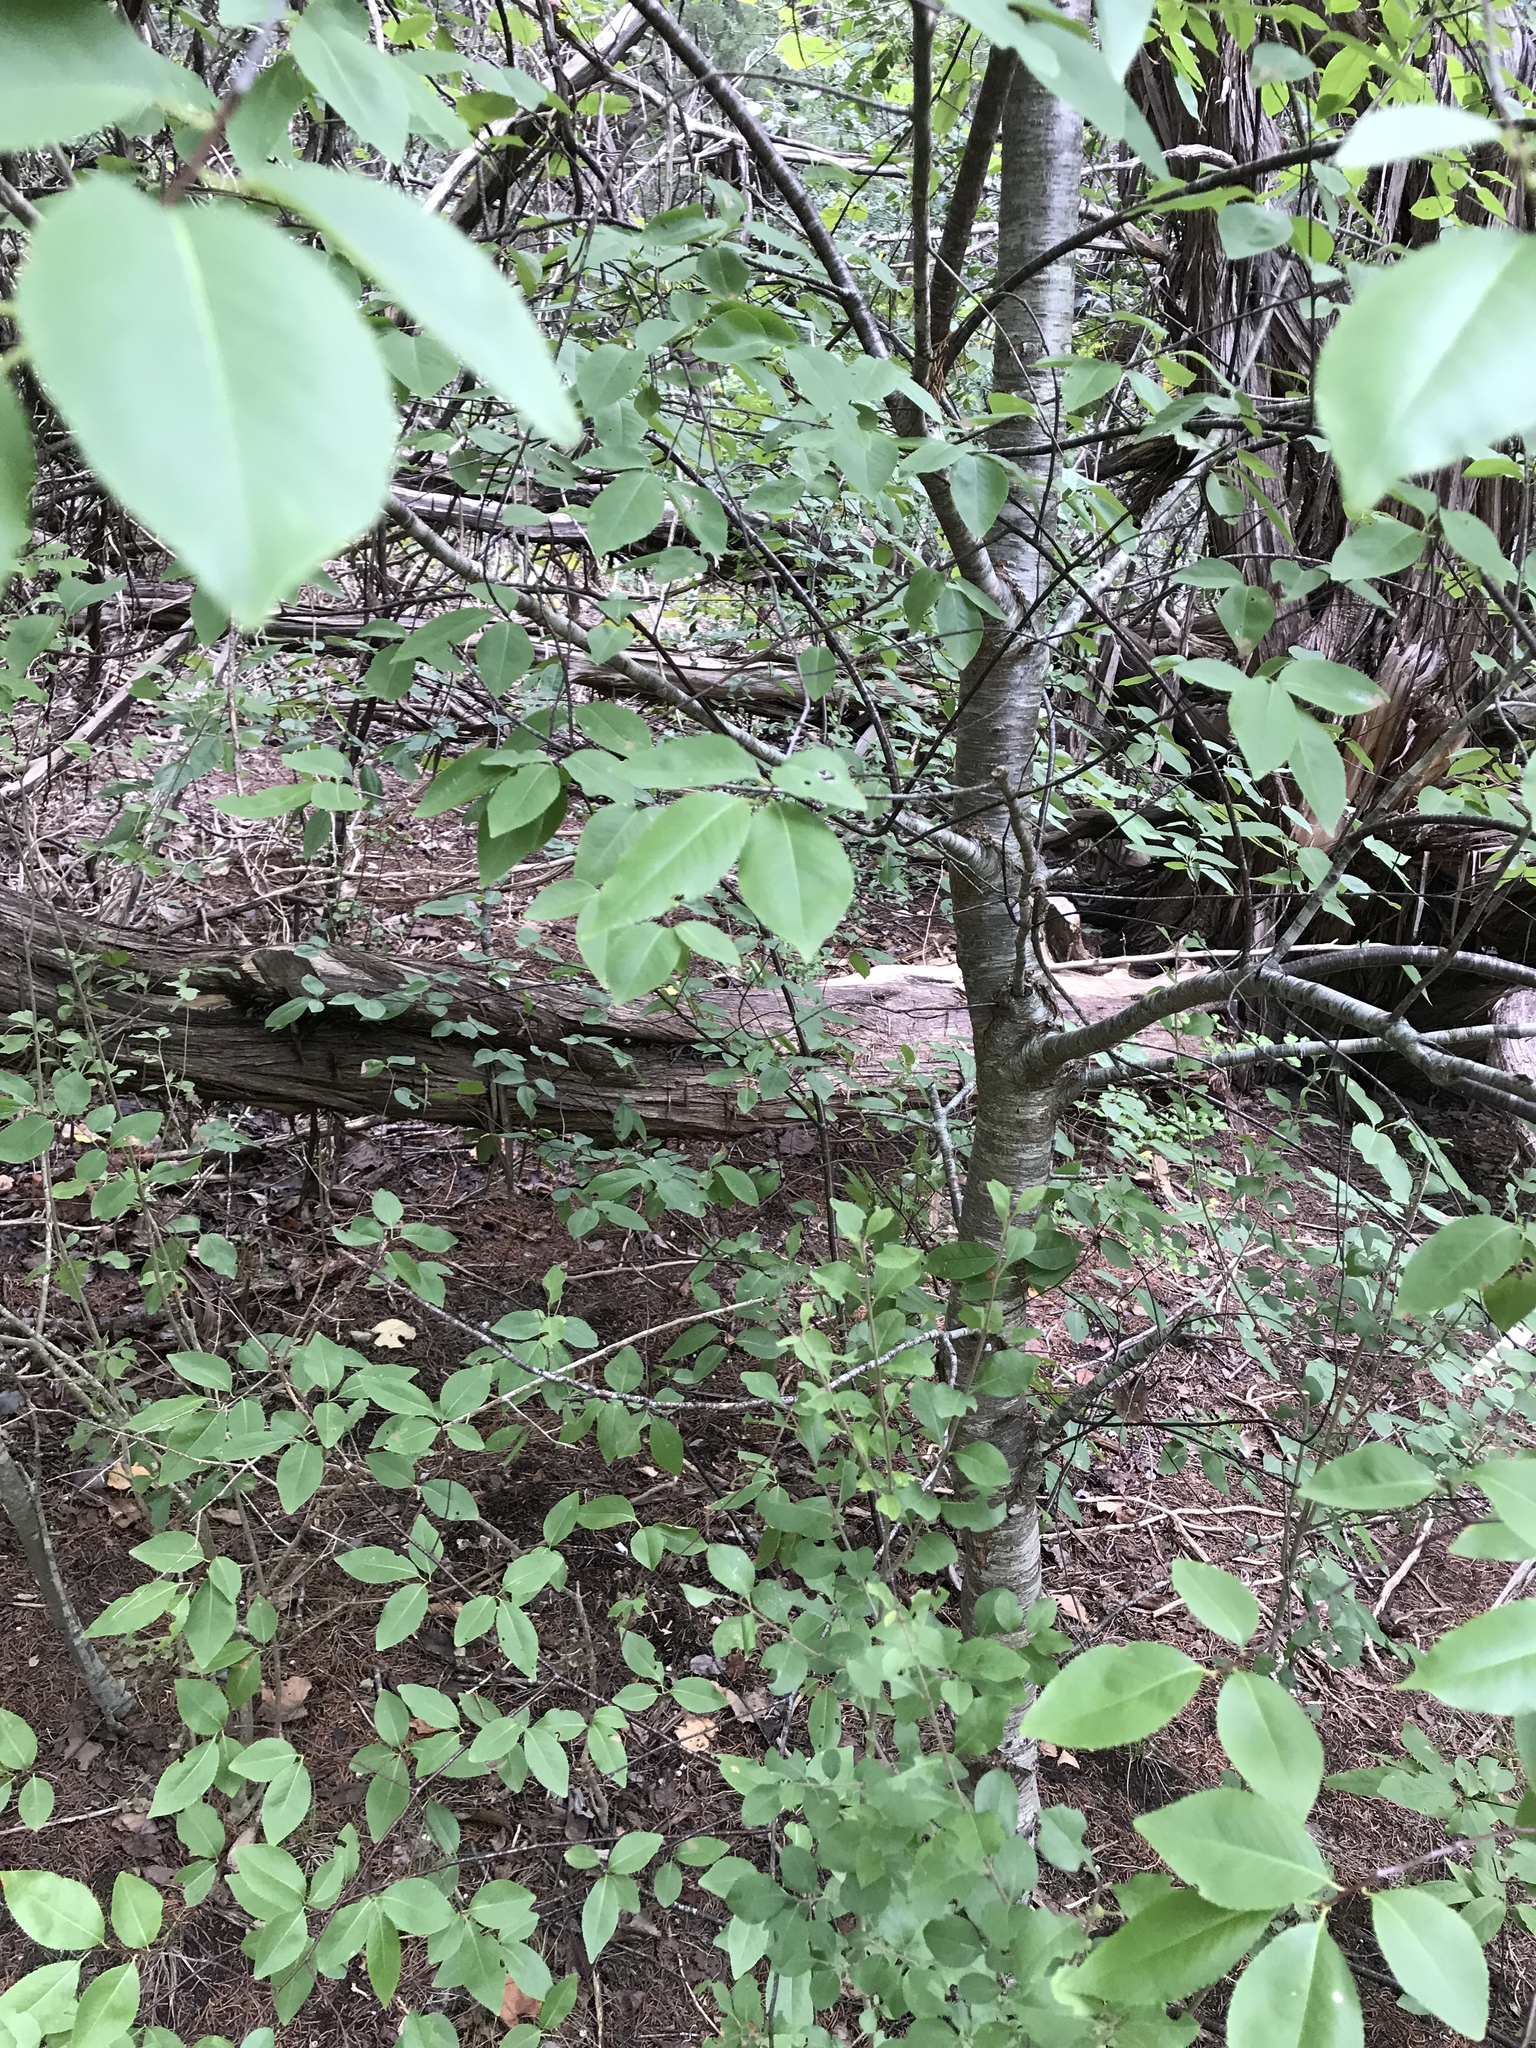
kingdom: Plantae
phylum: Tracheophyta
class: Magnoliopsida
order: Rosales
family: Rosaceae
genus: Prunus
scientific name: Prunus serotina
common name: Black cherry
